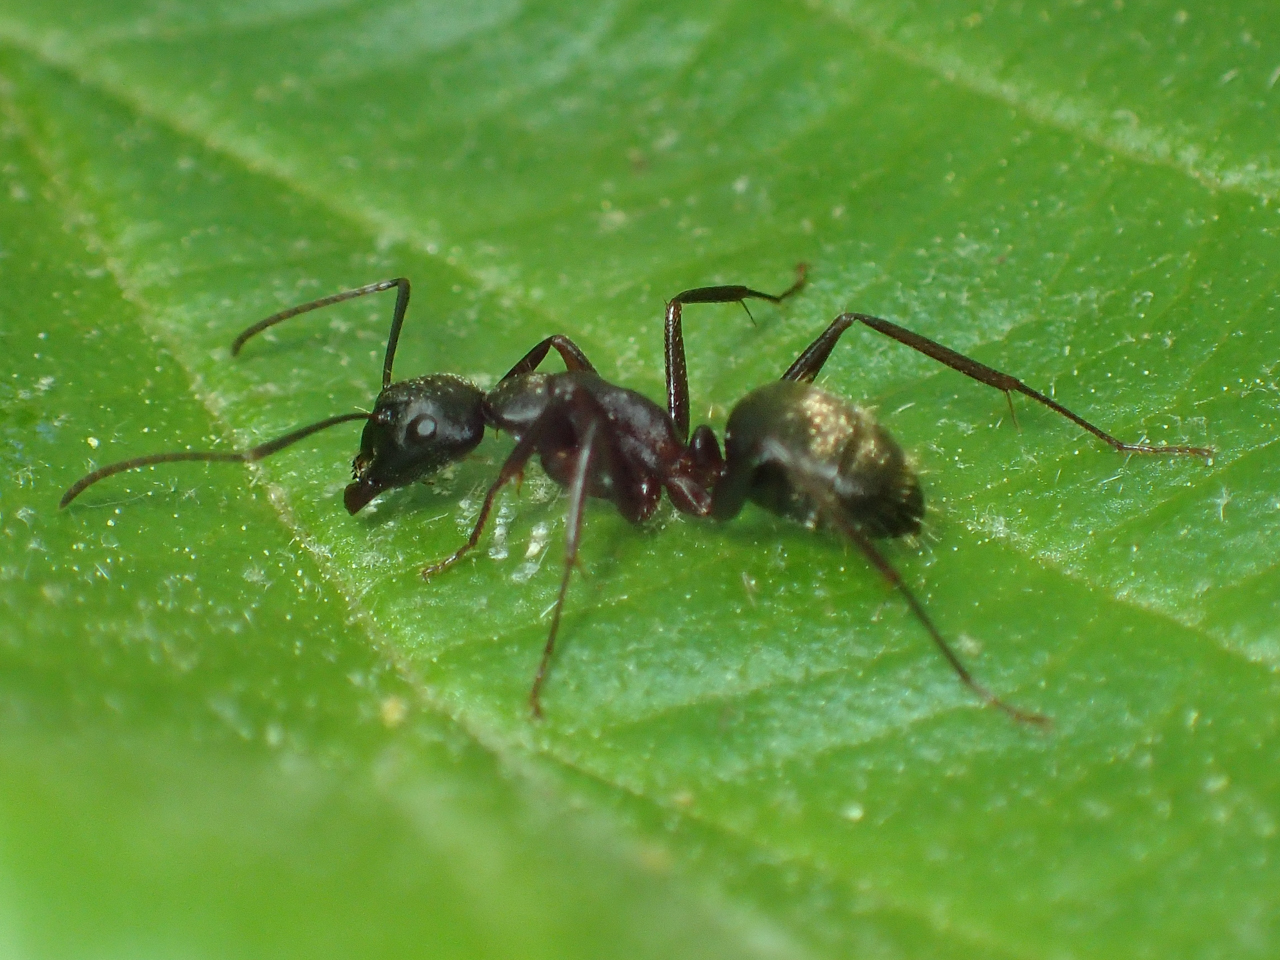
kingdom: Animalia
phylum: Arthropoda
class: Insecta
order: Hymenoptera
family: Formicidae
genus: Camponotus
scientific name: Camponotus pennsylvanicus
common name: Black carpenter ant
